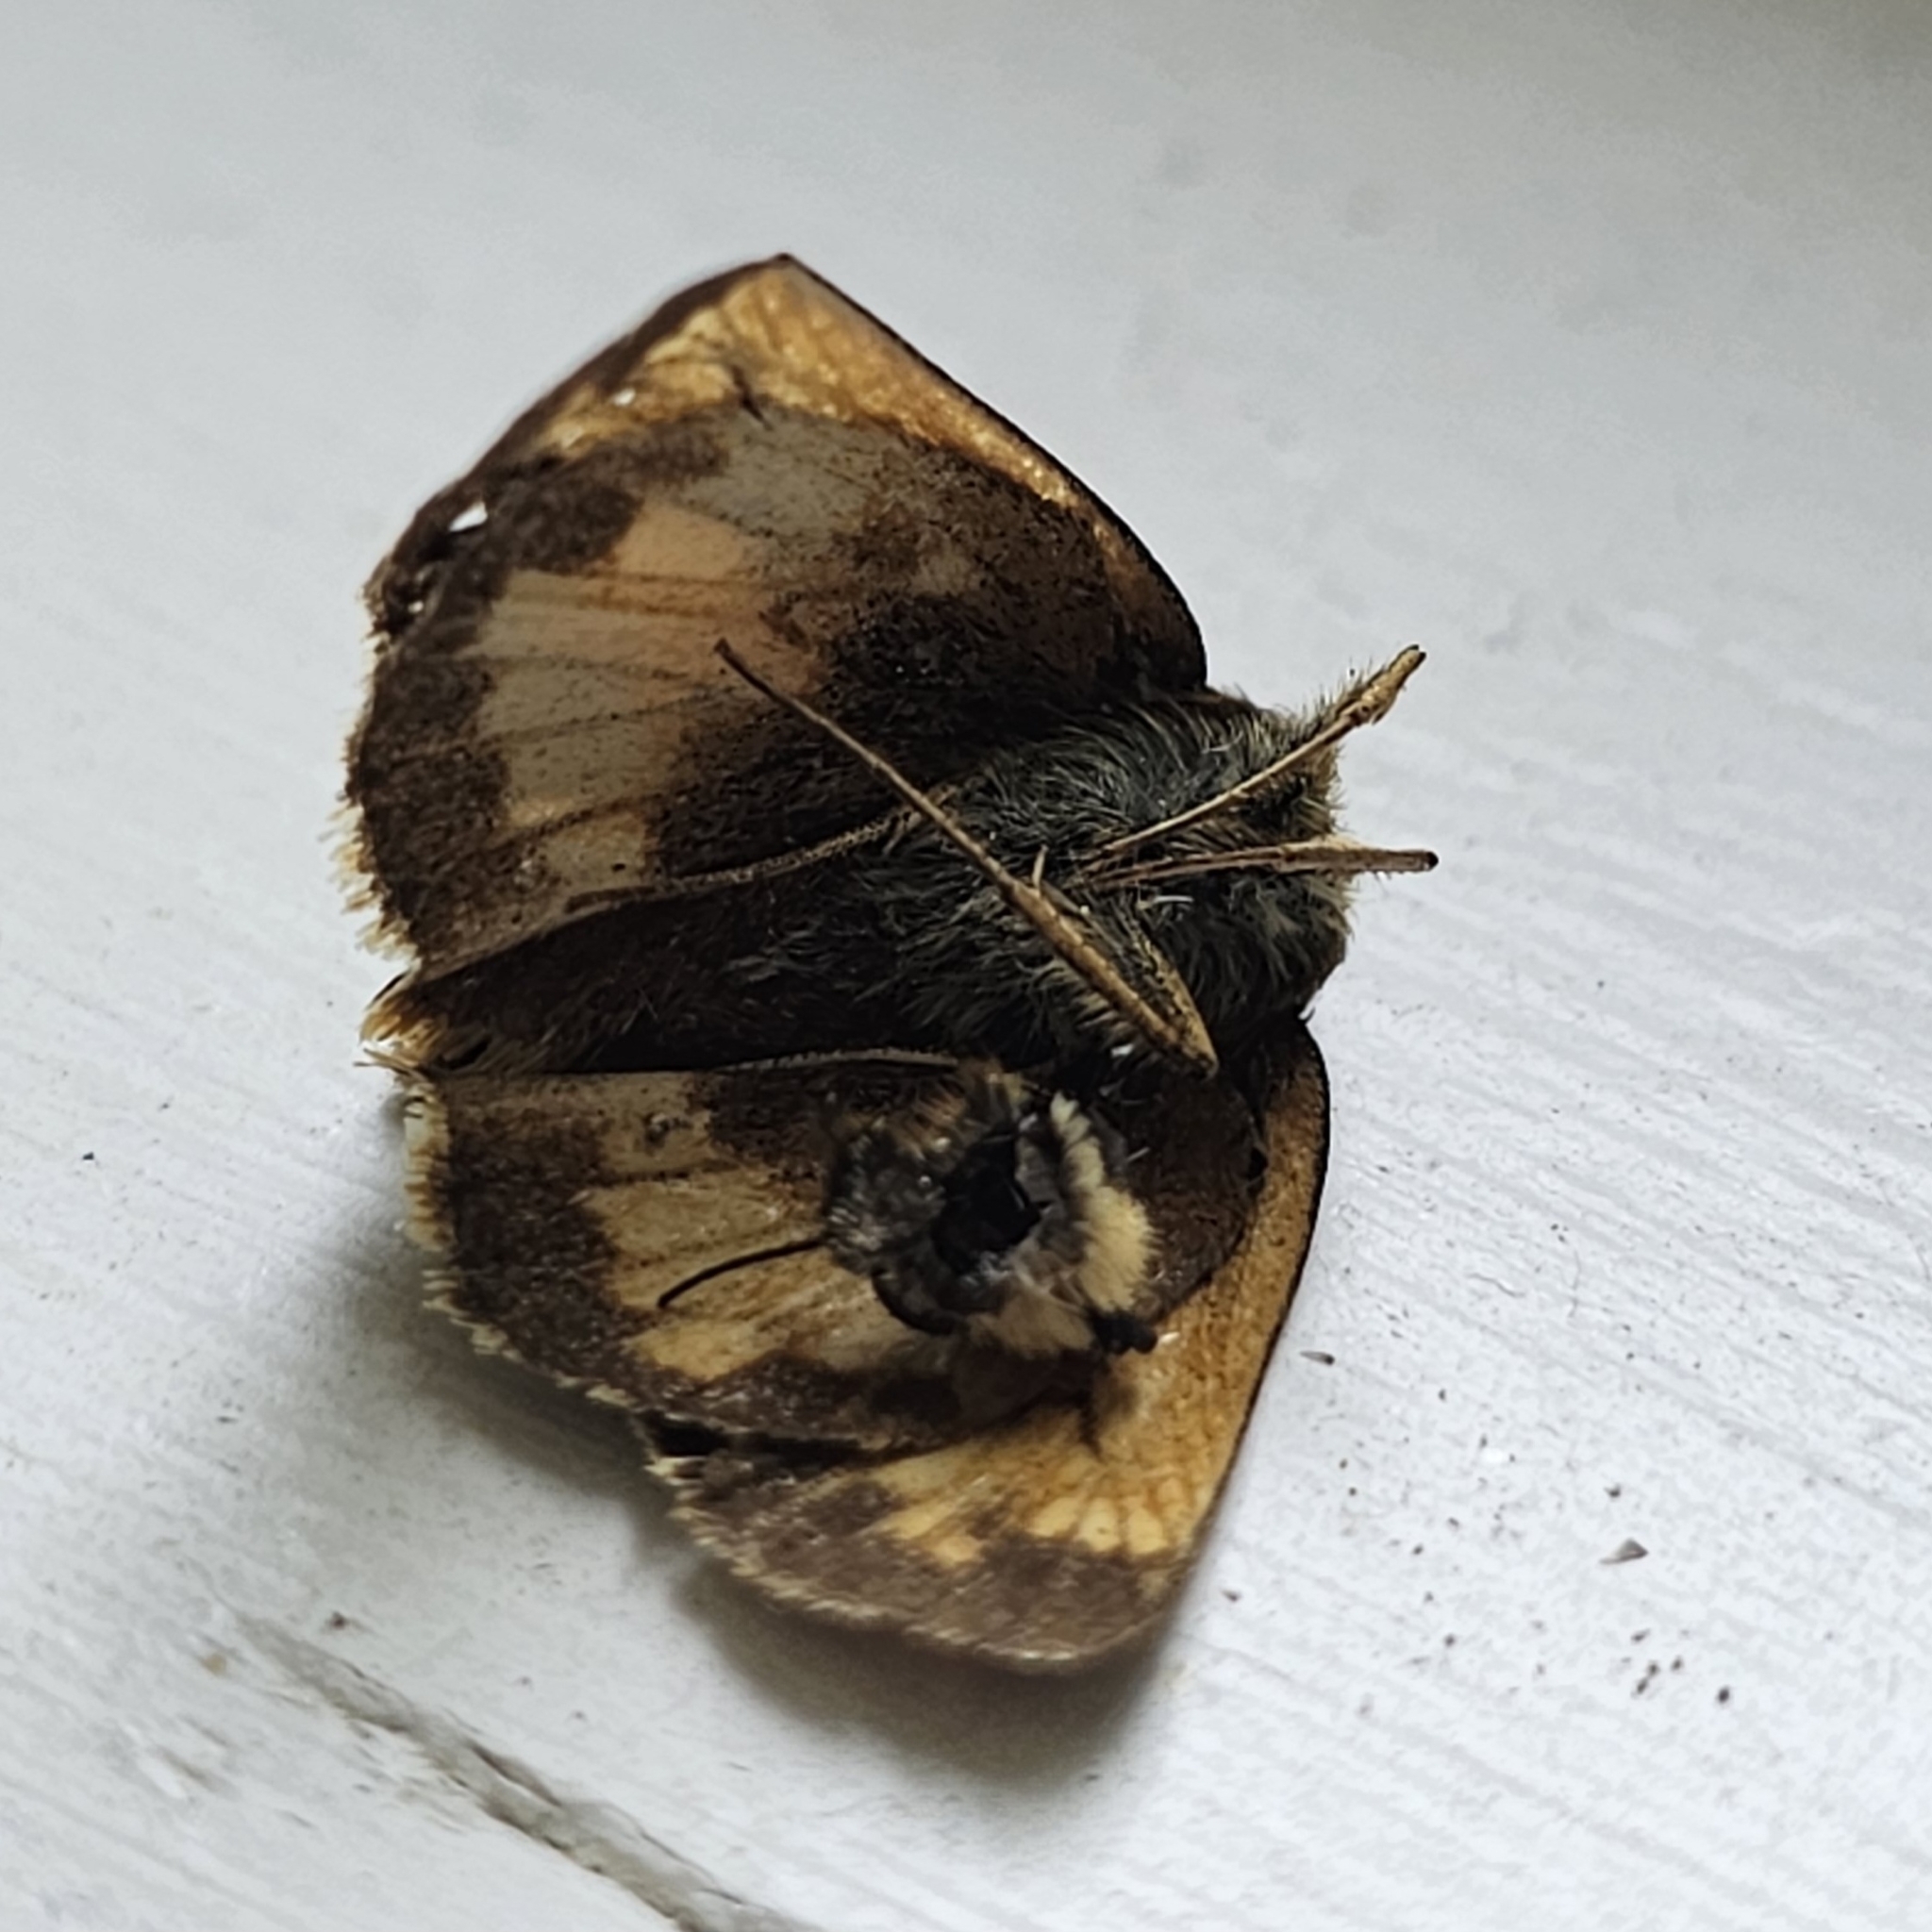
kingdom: Animalia
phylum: Arthropoda
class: Insecta
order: Lepidoptera
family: Hesperiidae
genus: Lon
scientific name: Lon hobomok
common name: Hobomok skipper
